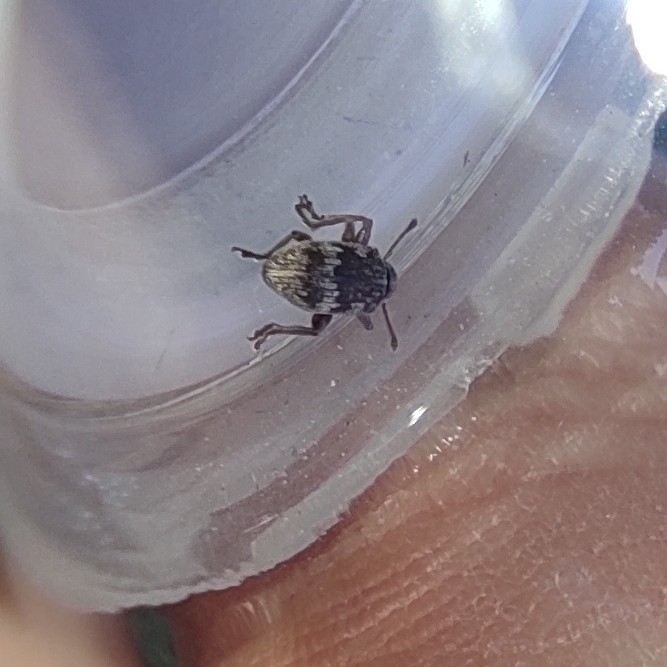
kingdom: Animalia
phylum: Arthropoda
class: Insecta
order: Coleoptera
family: Curculionidae
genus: Polydrusus
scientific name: Polydrusus tereticollis
